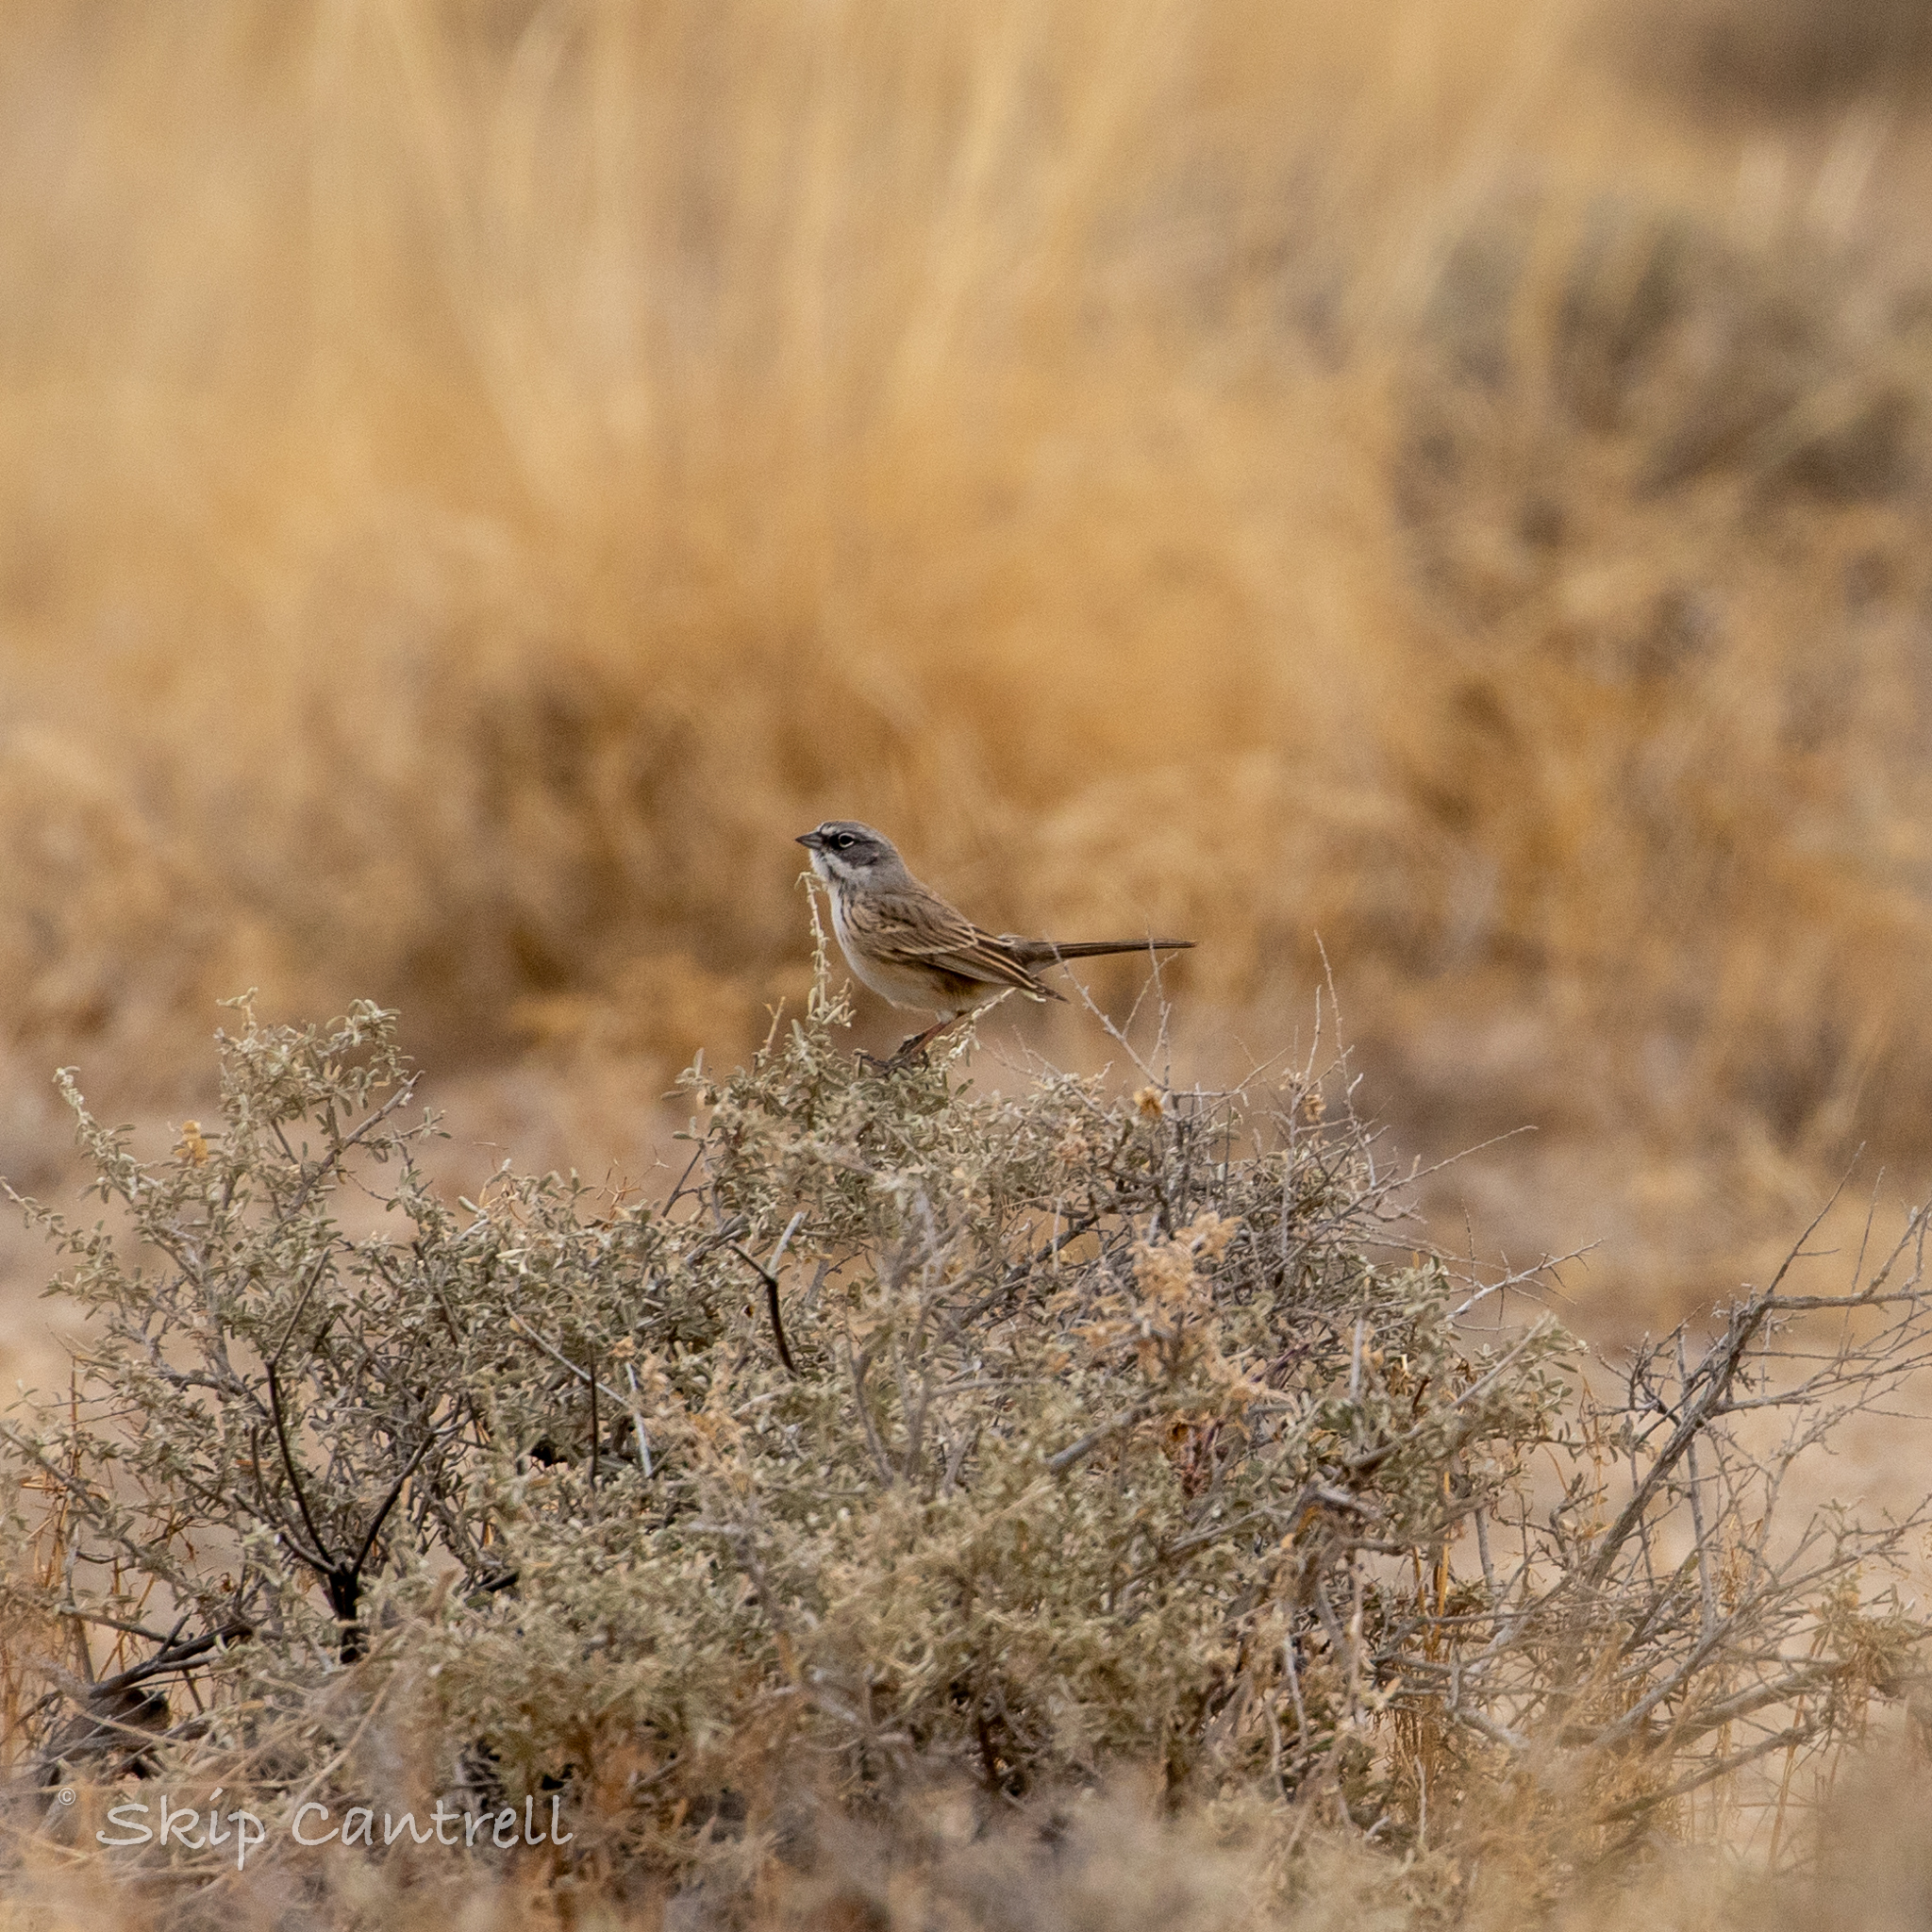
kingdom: Animalia
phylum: Chordata
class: Aves
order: Passeriformes
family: Passerellidae
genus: Artemisiospiza
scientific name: Artemisiospiza nevadensis
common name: Sagebrush sparrow
